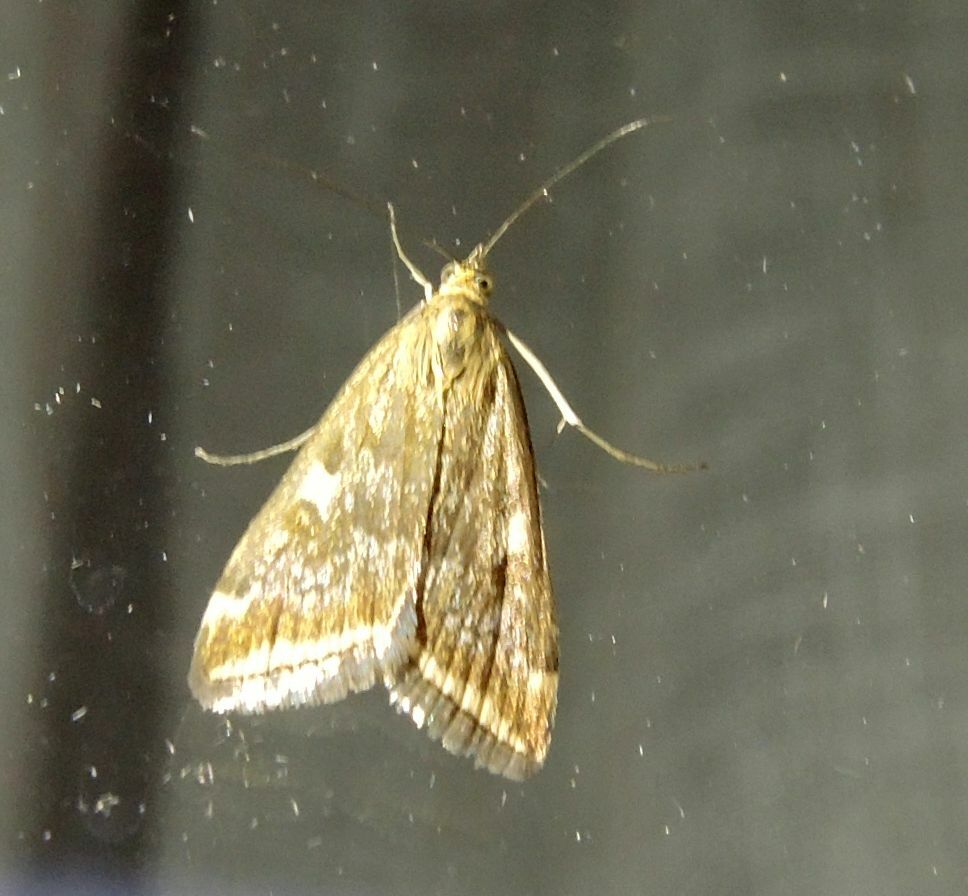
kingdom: Animalia
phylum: Arthropoda
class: Insecta
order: Lepidoptera
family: Crambidae
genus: Loxostege
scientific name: Loxostege sticticalis
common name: Crambid moth
